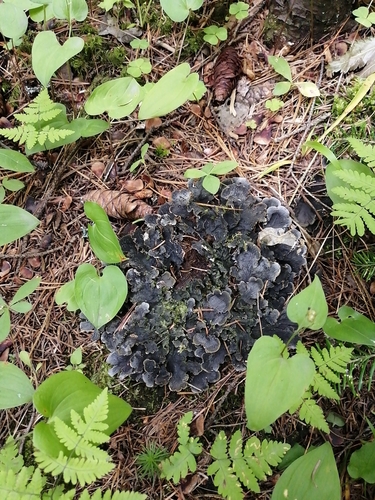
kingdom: Fungi
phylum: Ascomycota
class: Lecanoromycetes
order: Peltigerales
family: Peltigeraceae
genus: Peltigera
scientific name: Peltigera
